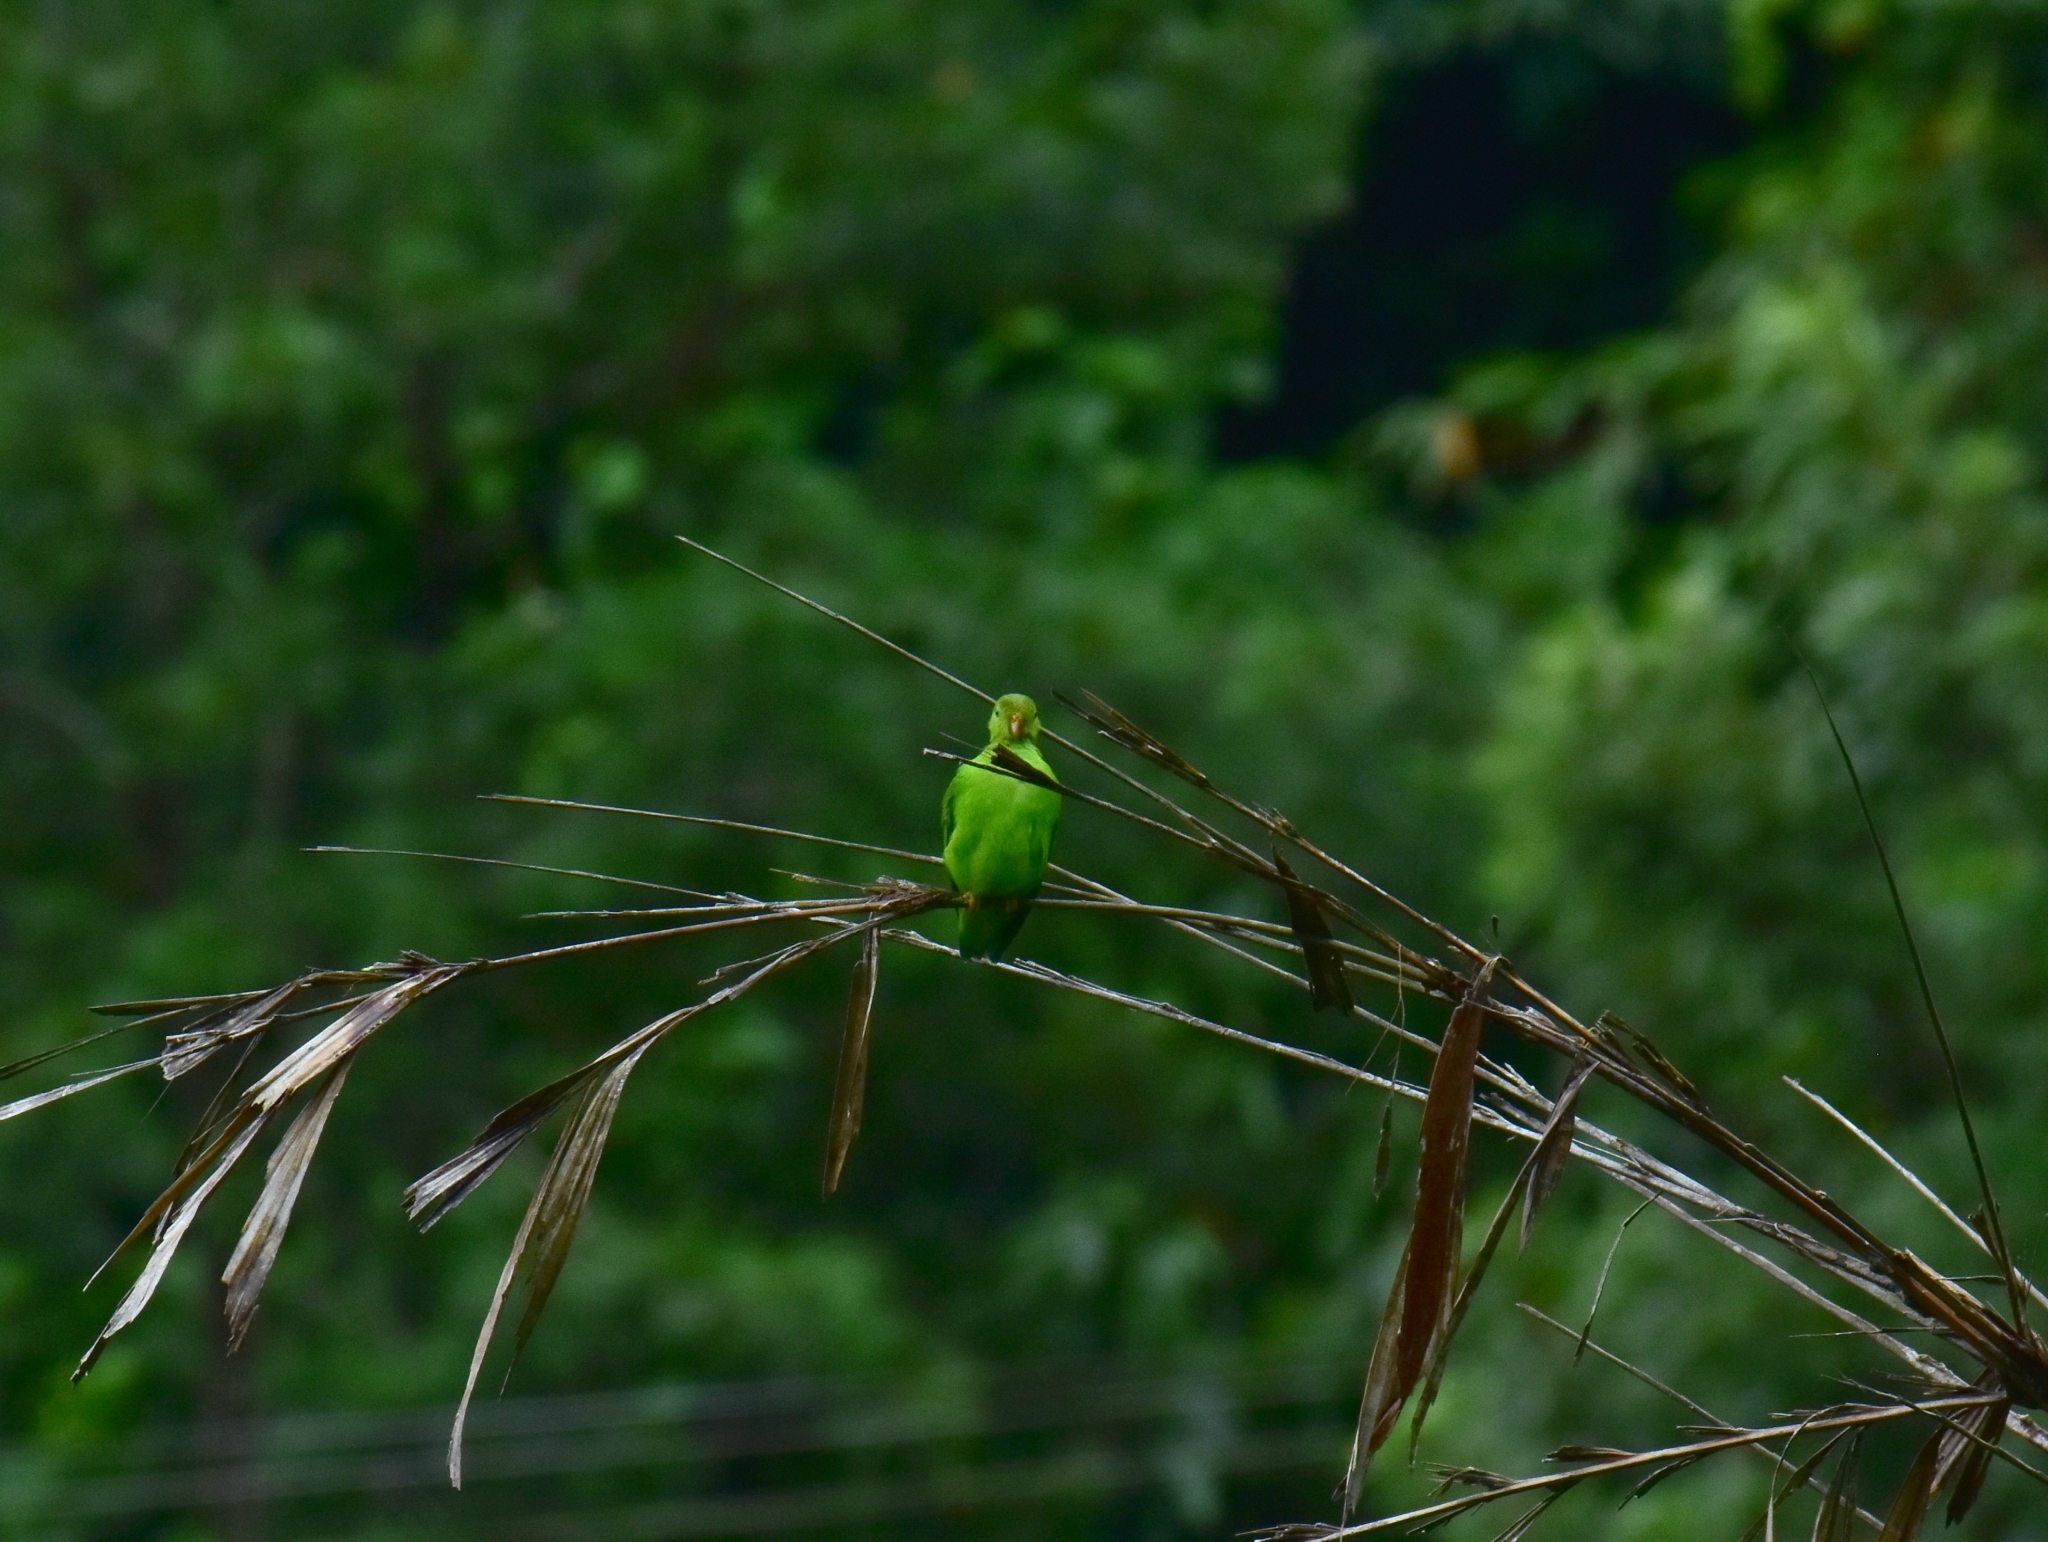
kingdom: Animalia
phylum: Chordata
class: Aves
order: Psittaciformes
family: Psittacidae
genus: Loriculus
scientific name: Loriculus vernalis
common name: Vernal hanging parrot
